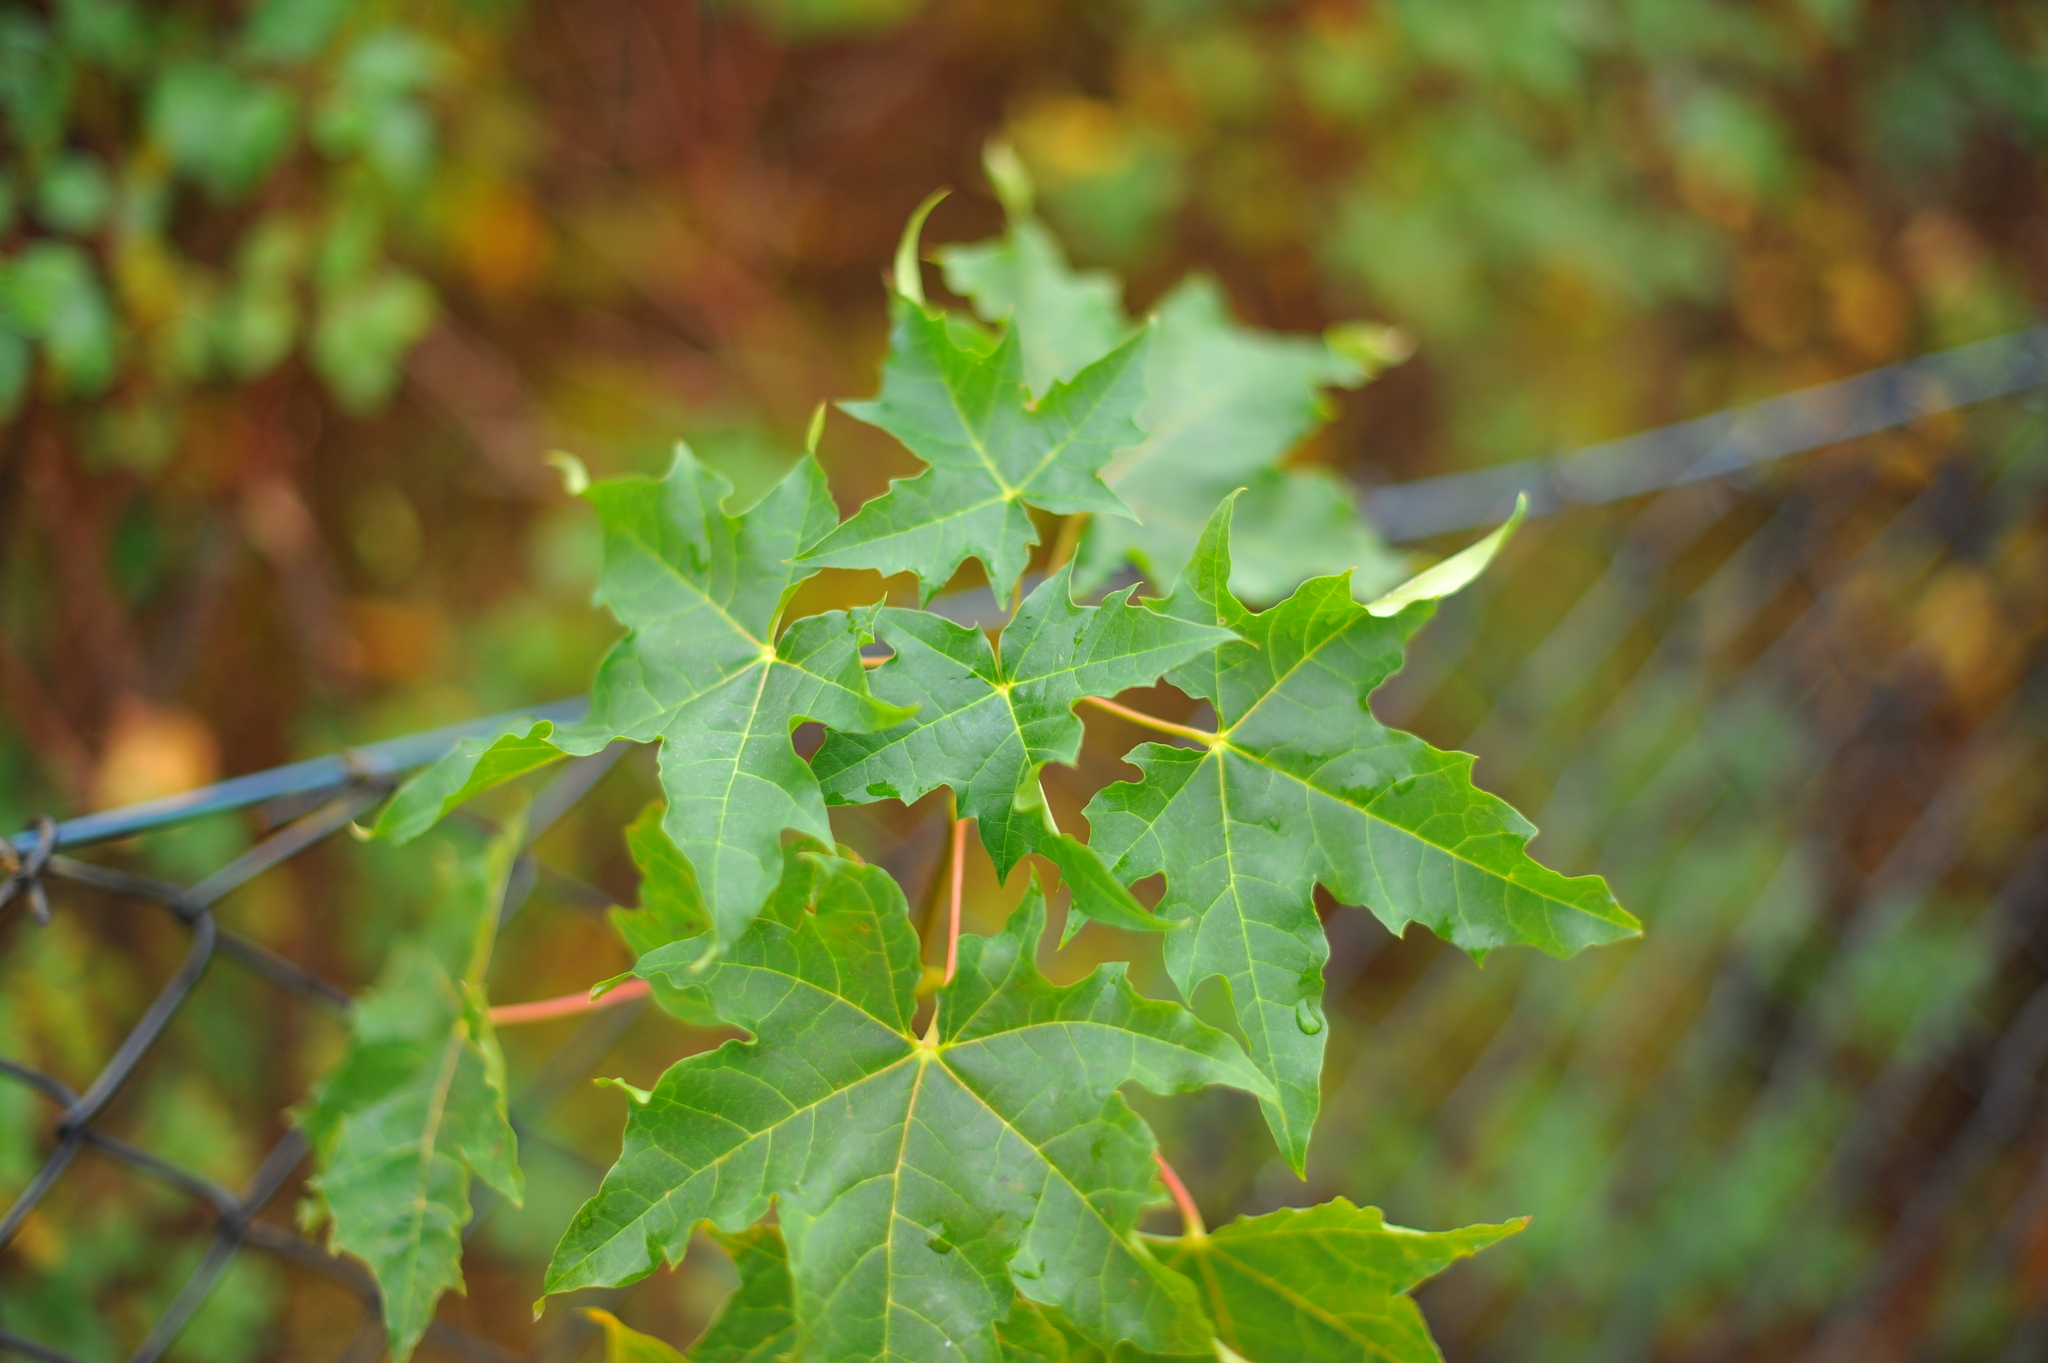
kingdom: Plantae
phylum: Tracheophyta
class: Magnoliopsida
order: Sapindales
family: Sapindaceae
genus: Acer
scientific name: Acer platanoides
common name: Norway maple
